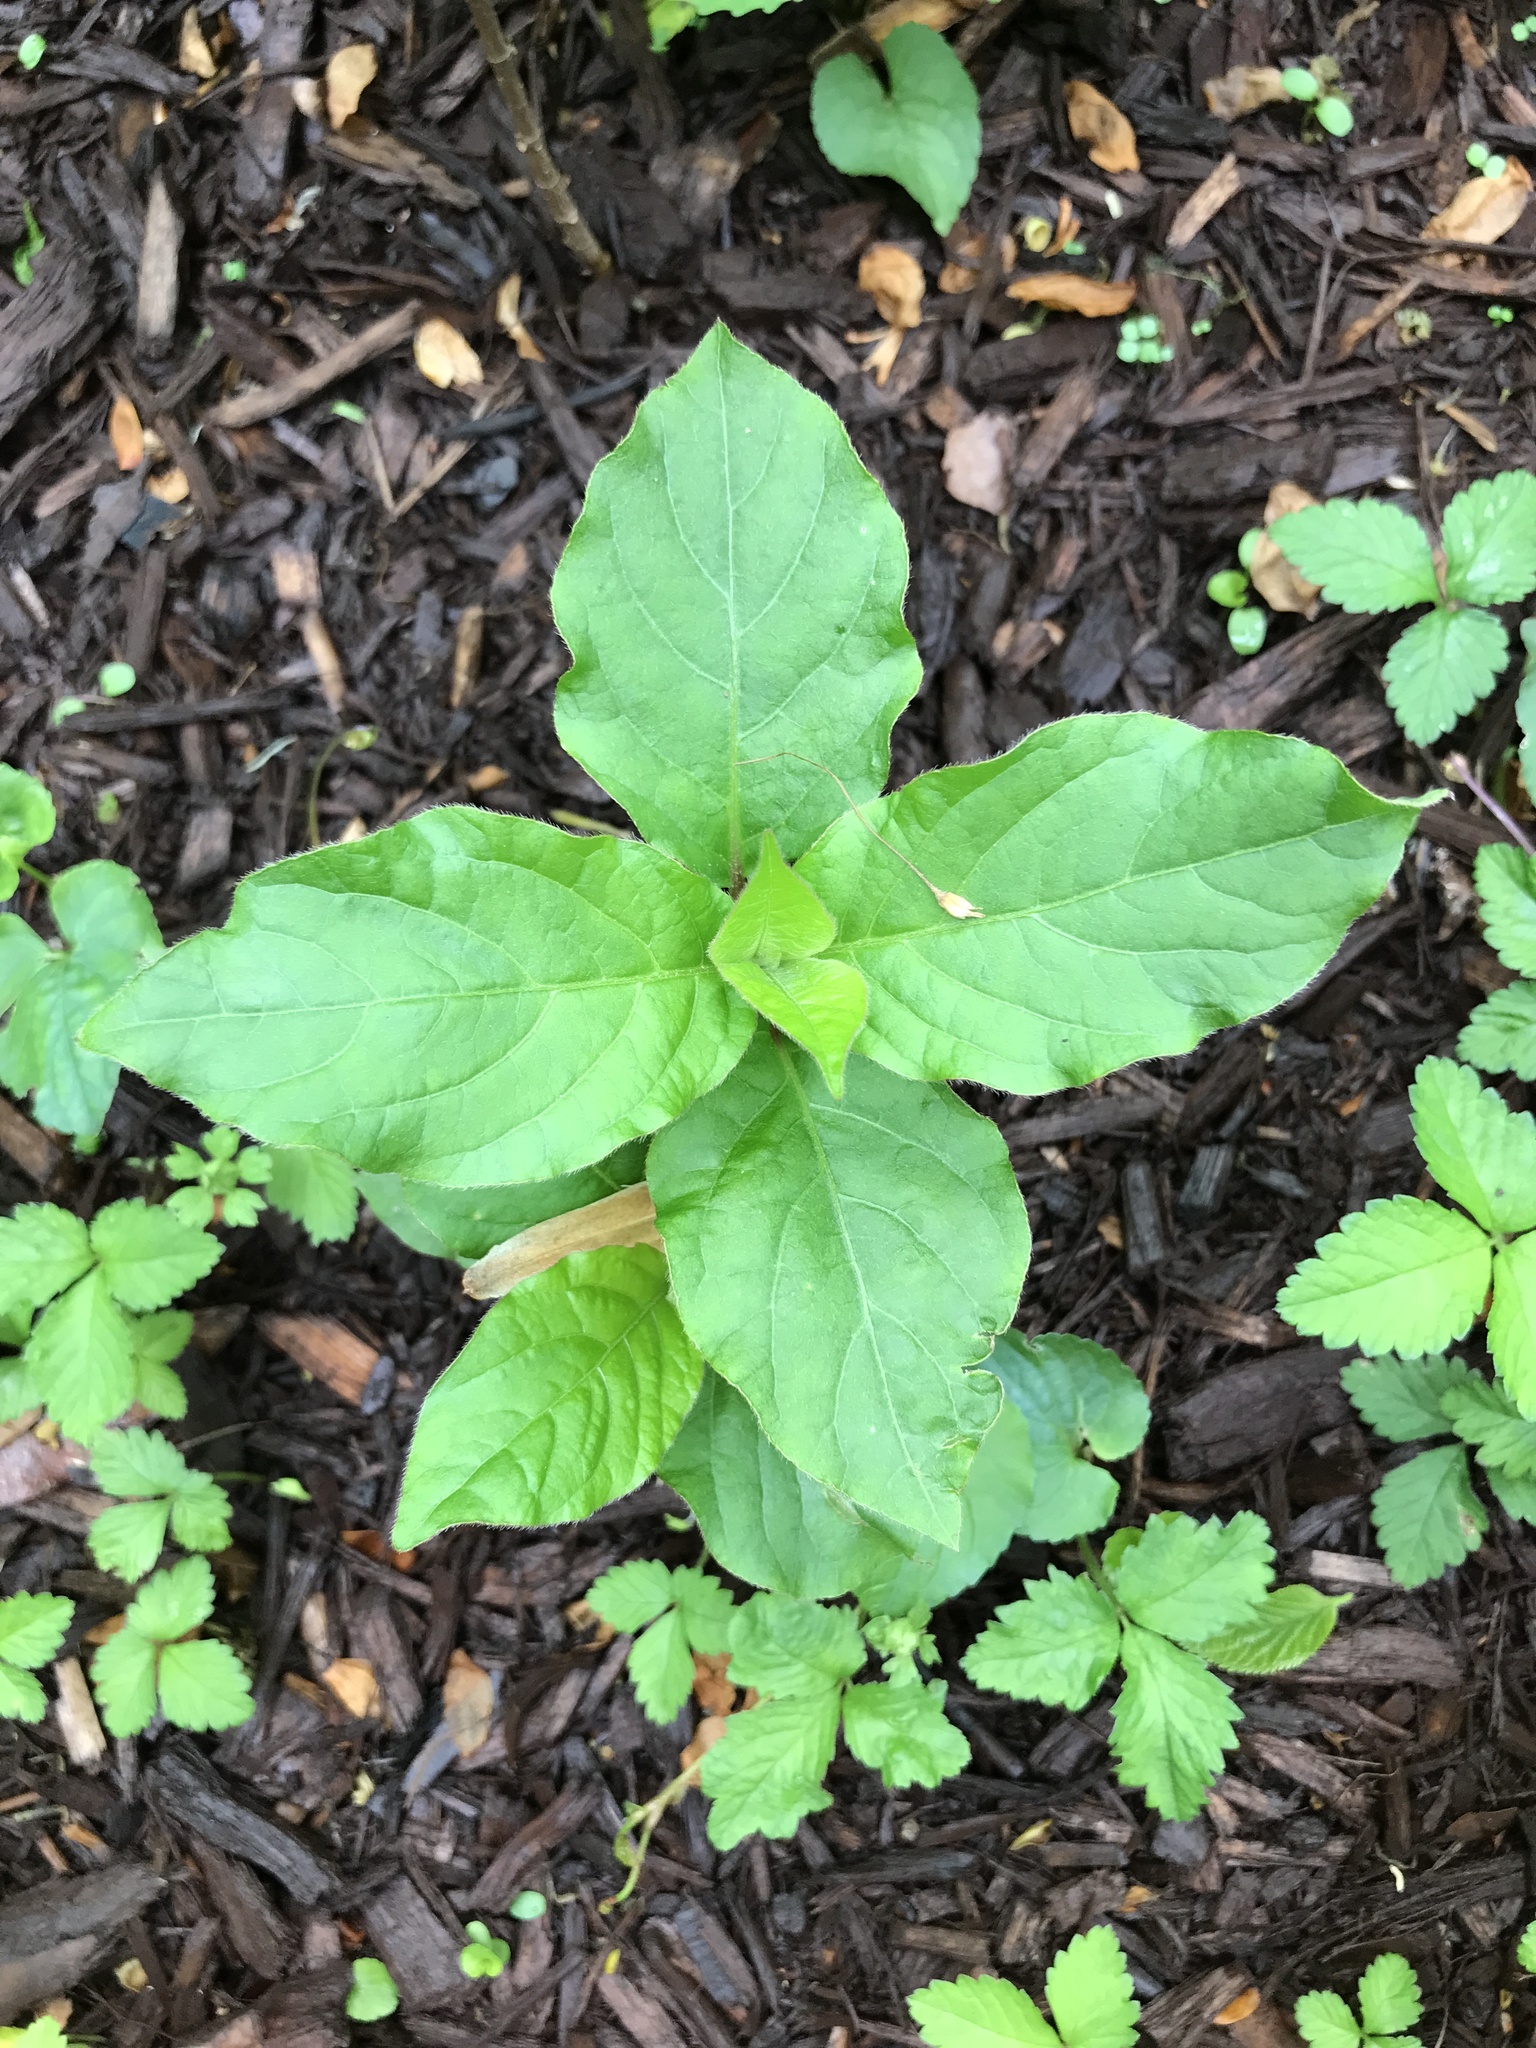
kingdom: Plantae
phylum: Tracheophyta
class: Magnoliopsida
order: Caryophyllales
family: Amaranthaceae
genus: Achyranthes
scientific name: Achyranthes bidentata
